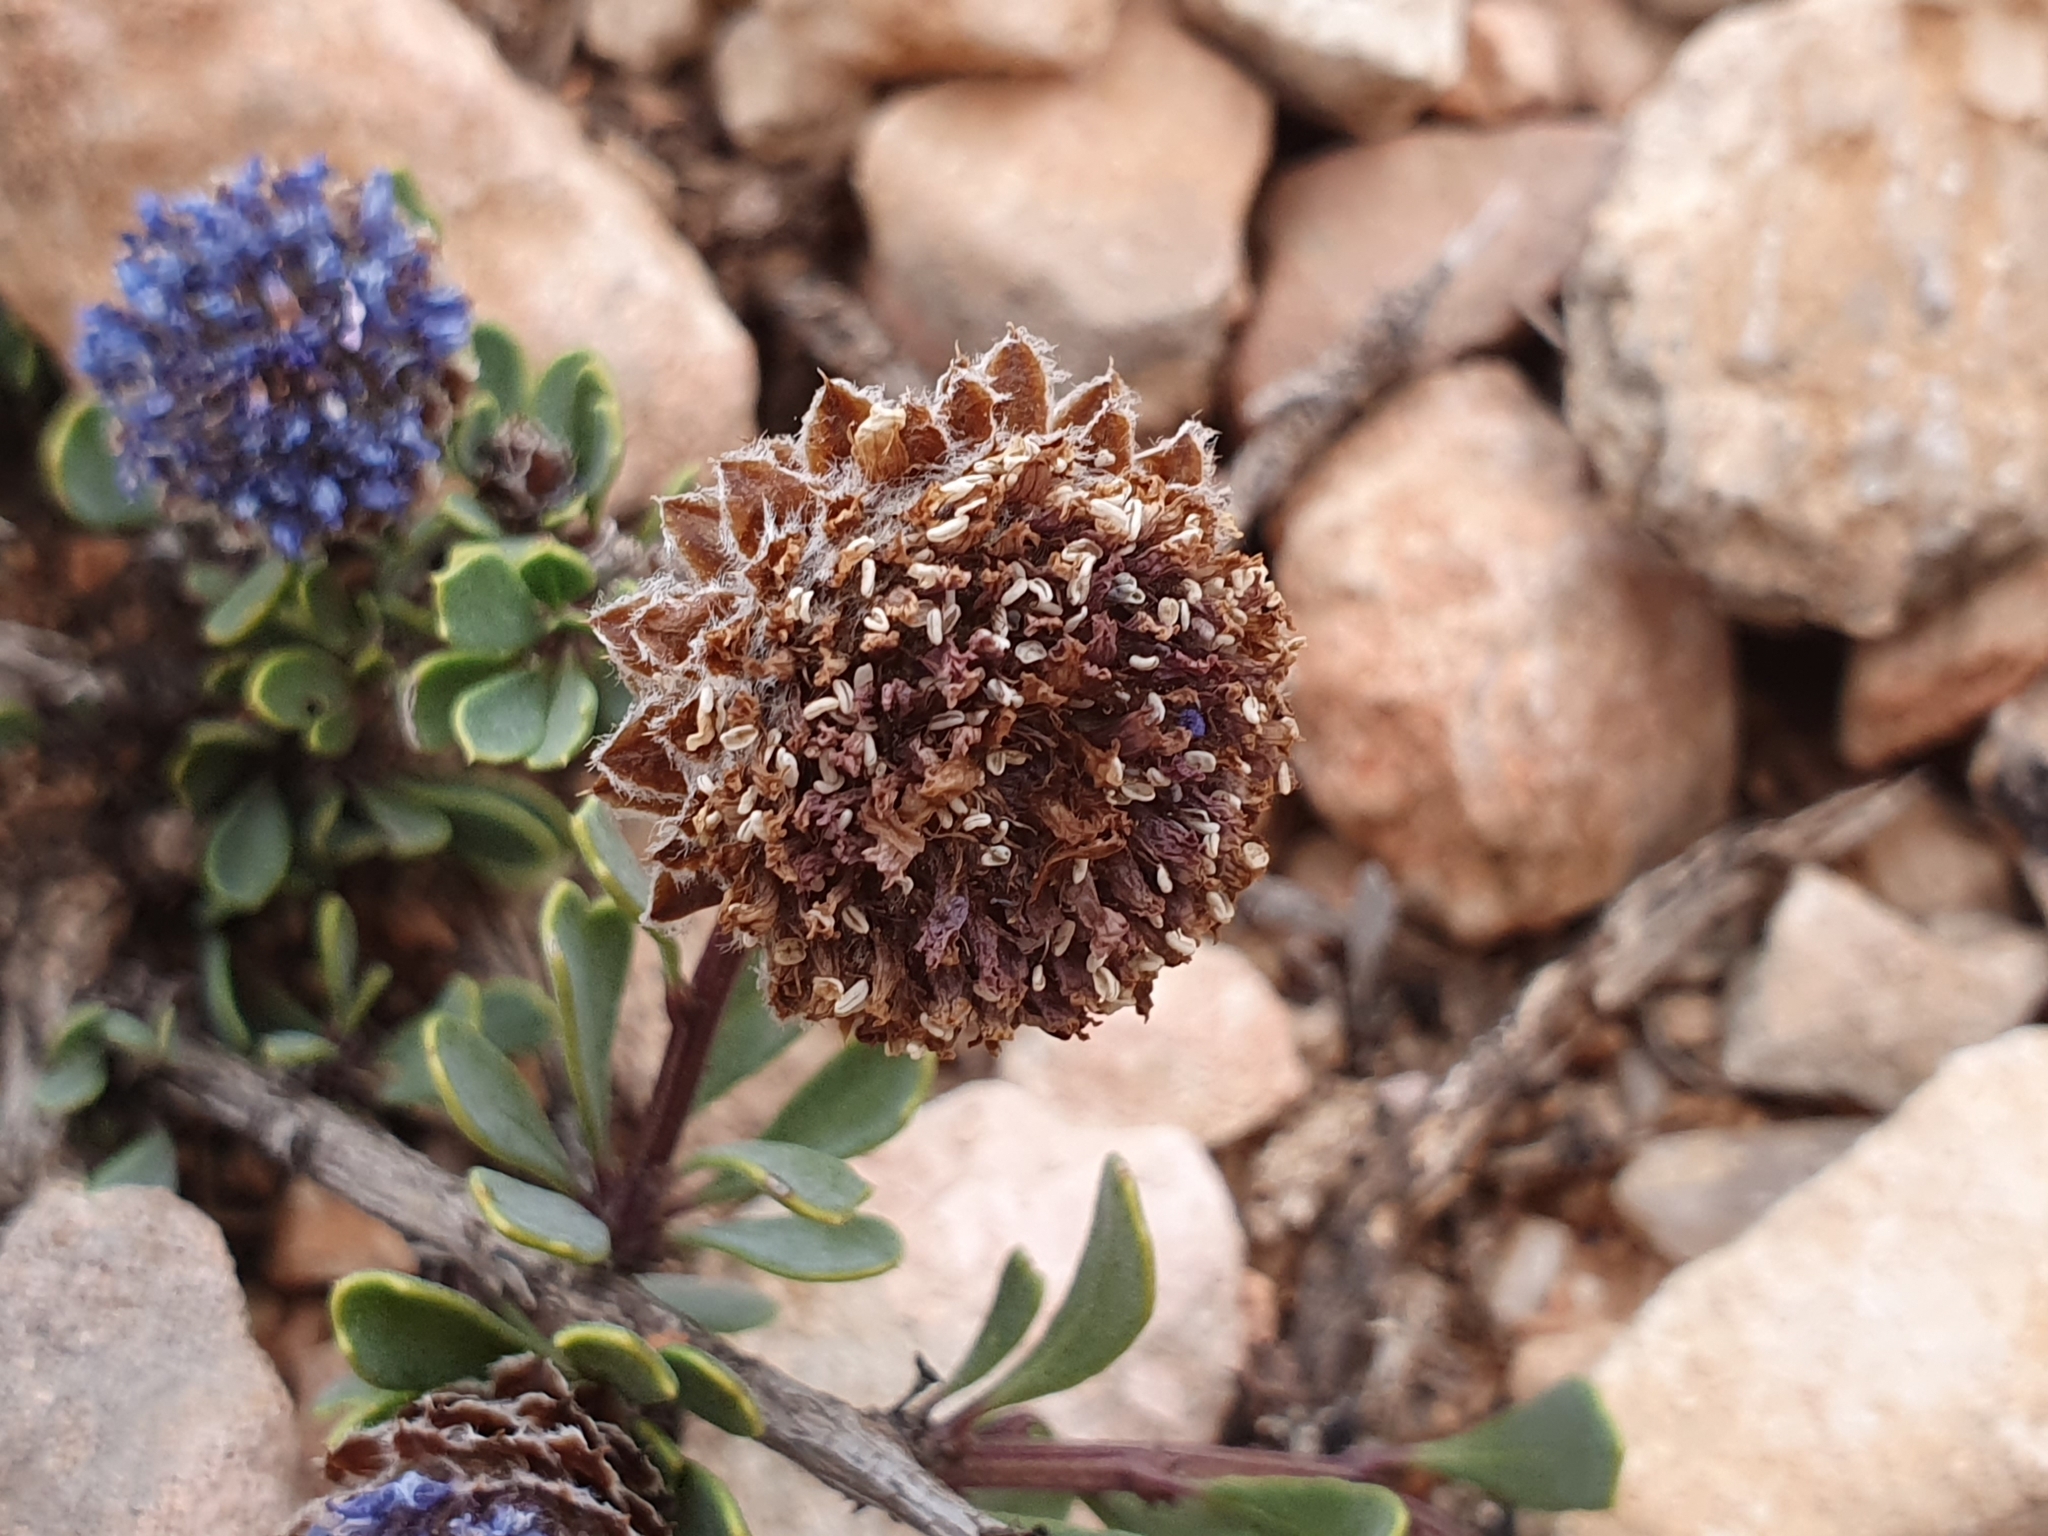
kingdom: Plantae
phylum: Tracheophyta
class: Magnoliopsida
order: Lamiales
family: Plantaginaceae
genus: Globularia
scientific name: Globularia alypum
